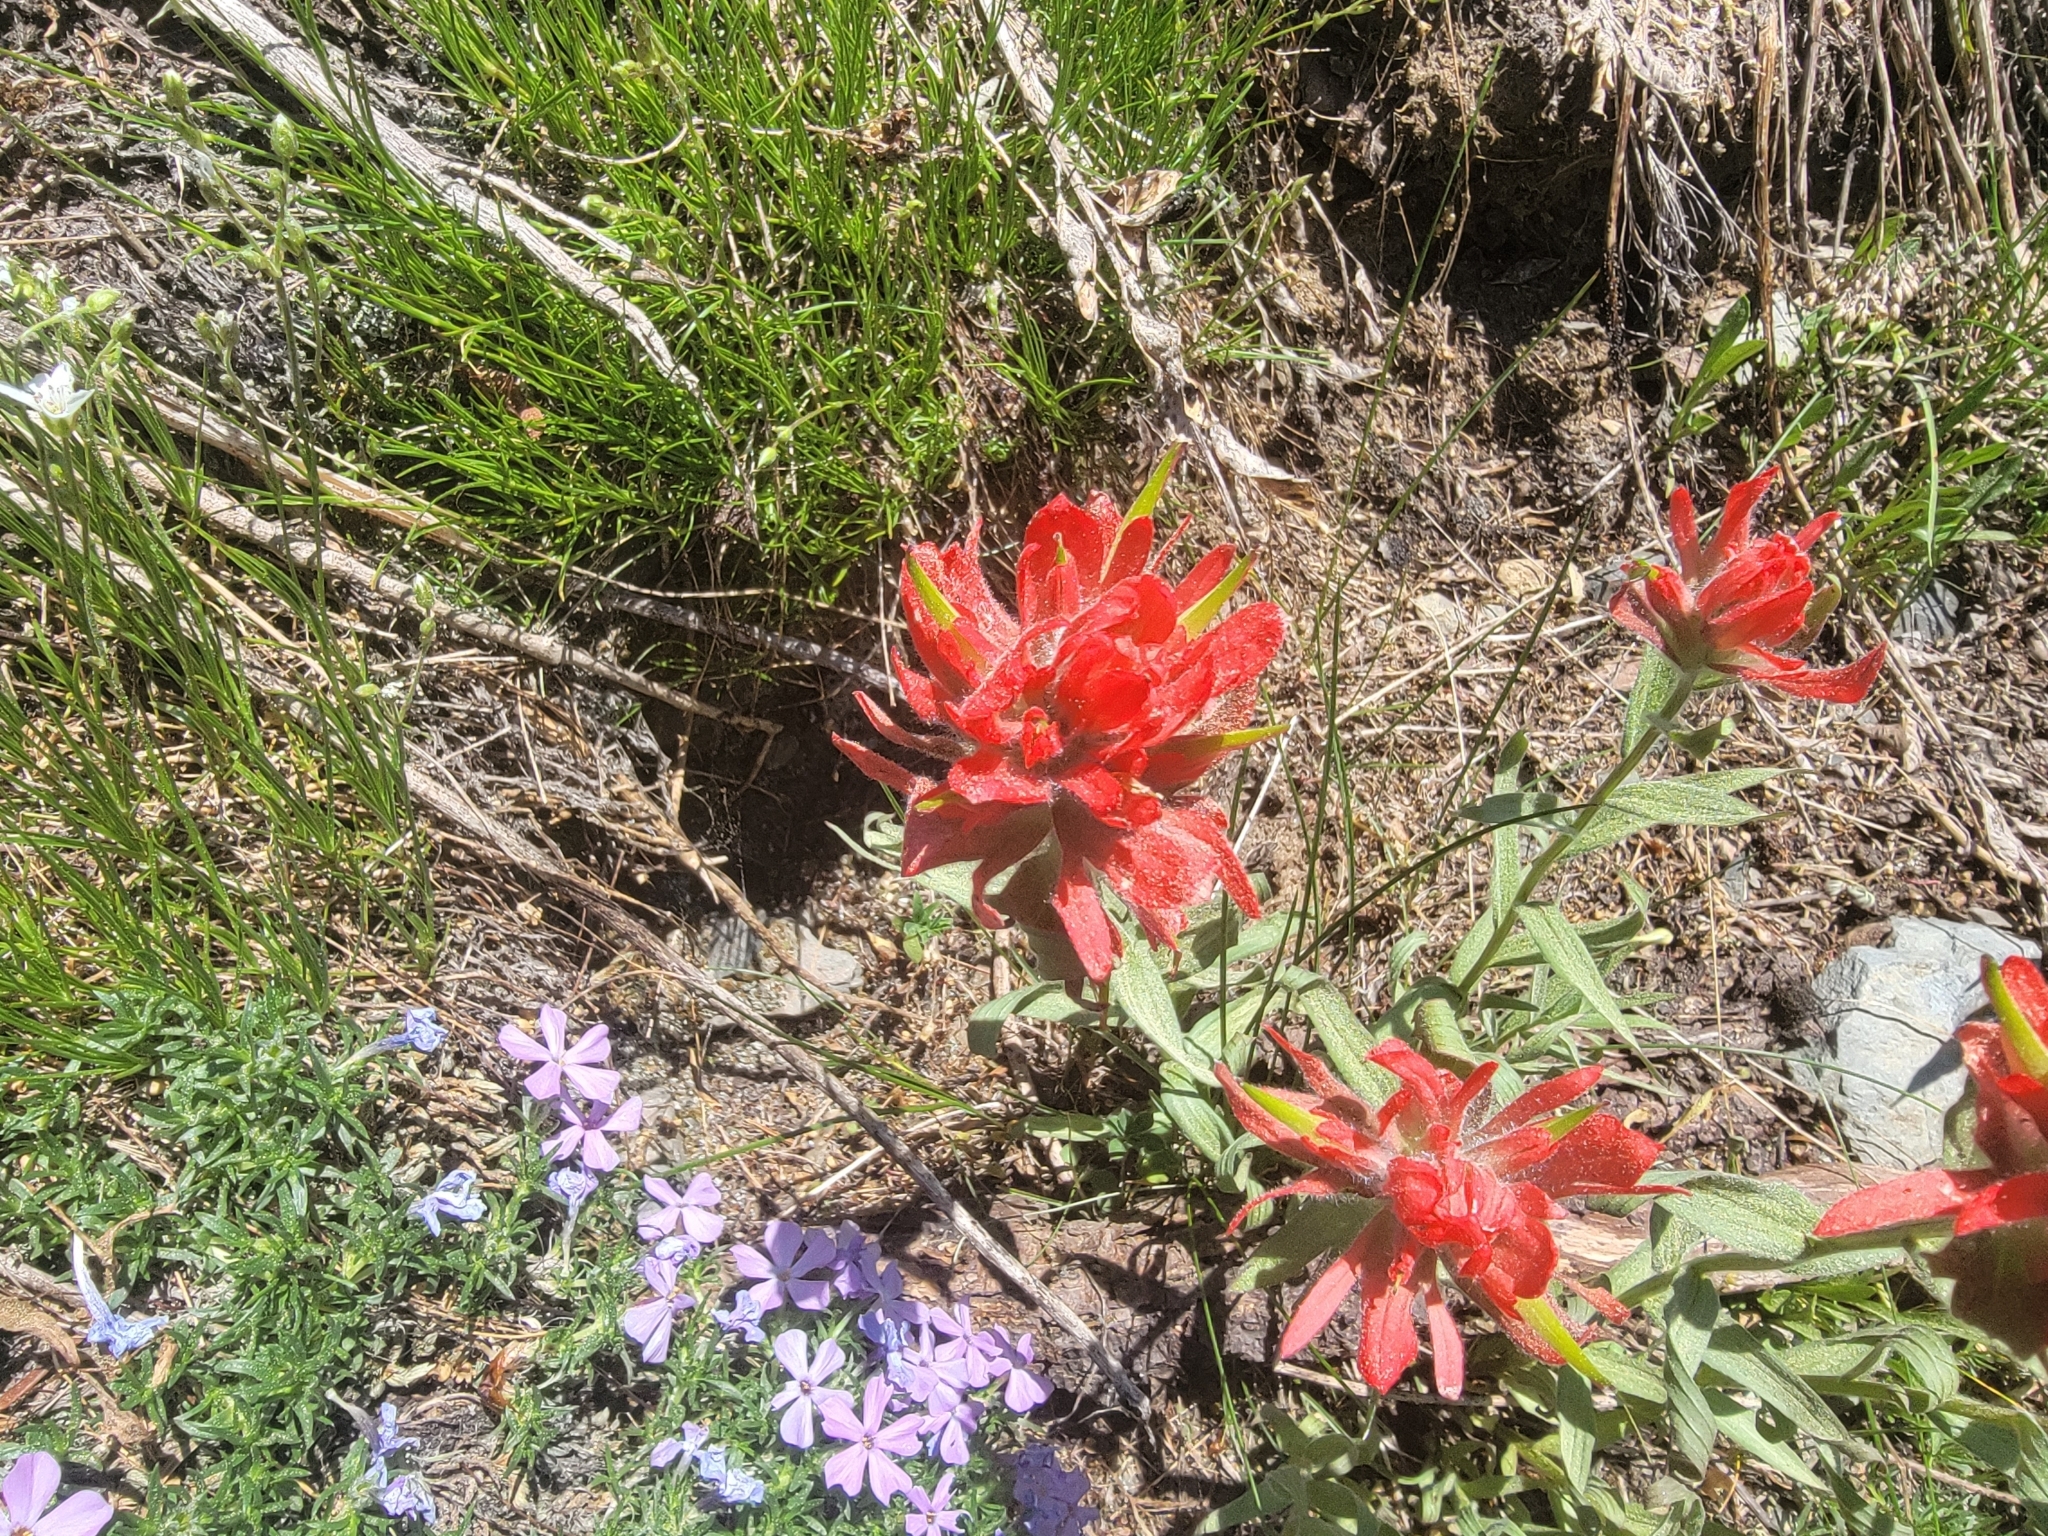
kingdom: Plantae
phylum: Tracheophyta
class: Magnoliopsida
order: Lamiales
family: Orobanchaceae
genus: Castilleja
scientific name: Castilleja elmeri
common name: Elmer's paintbrush
